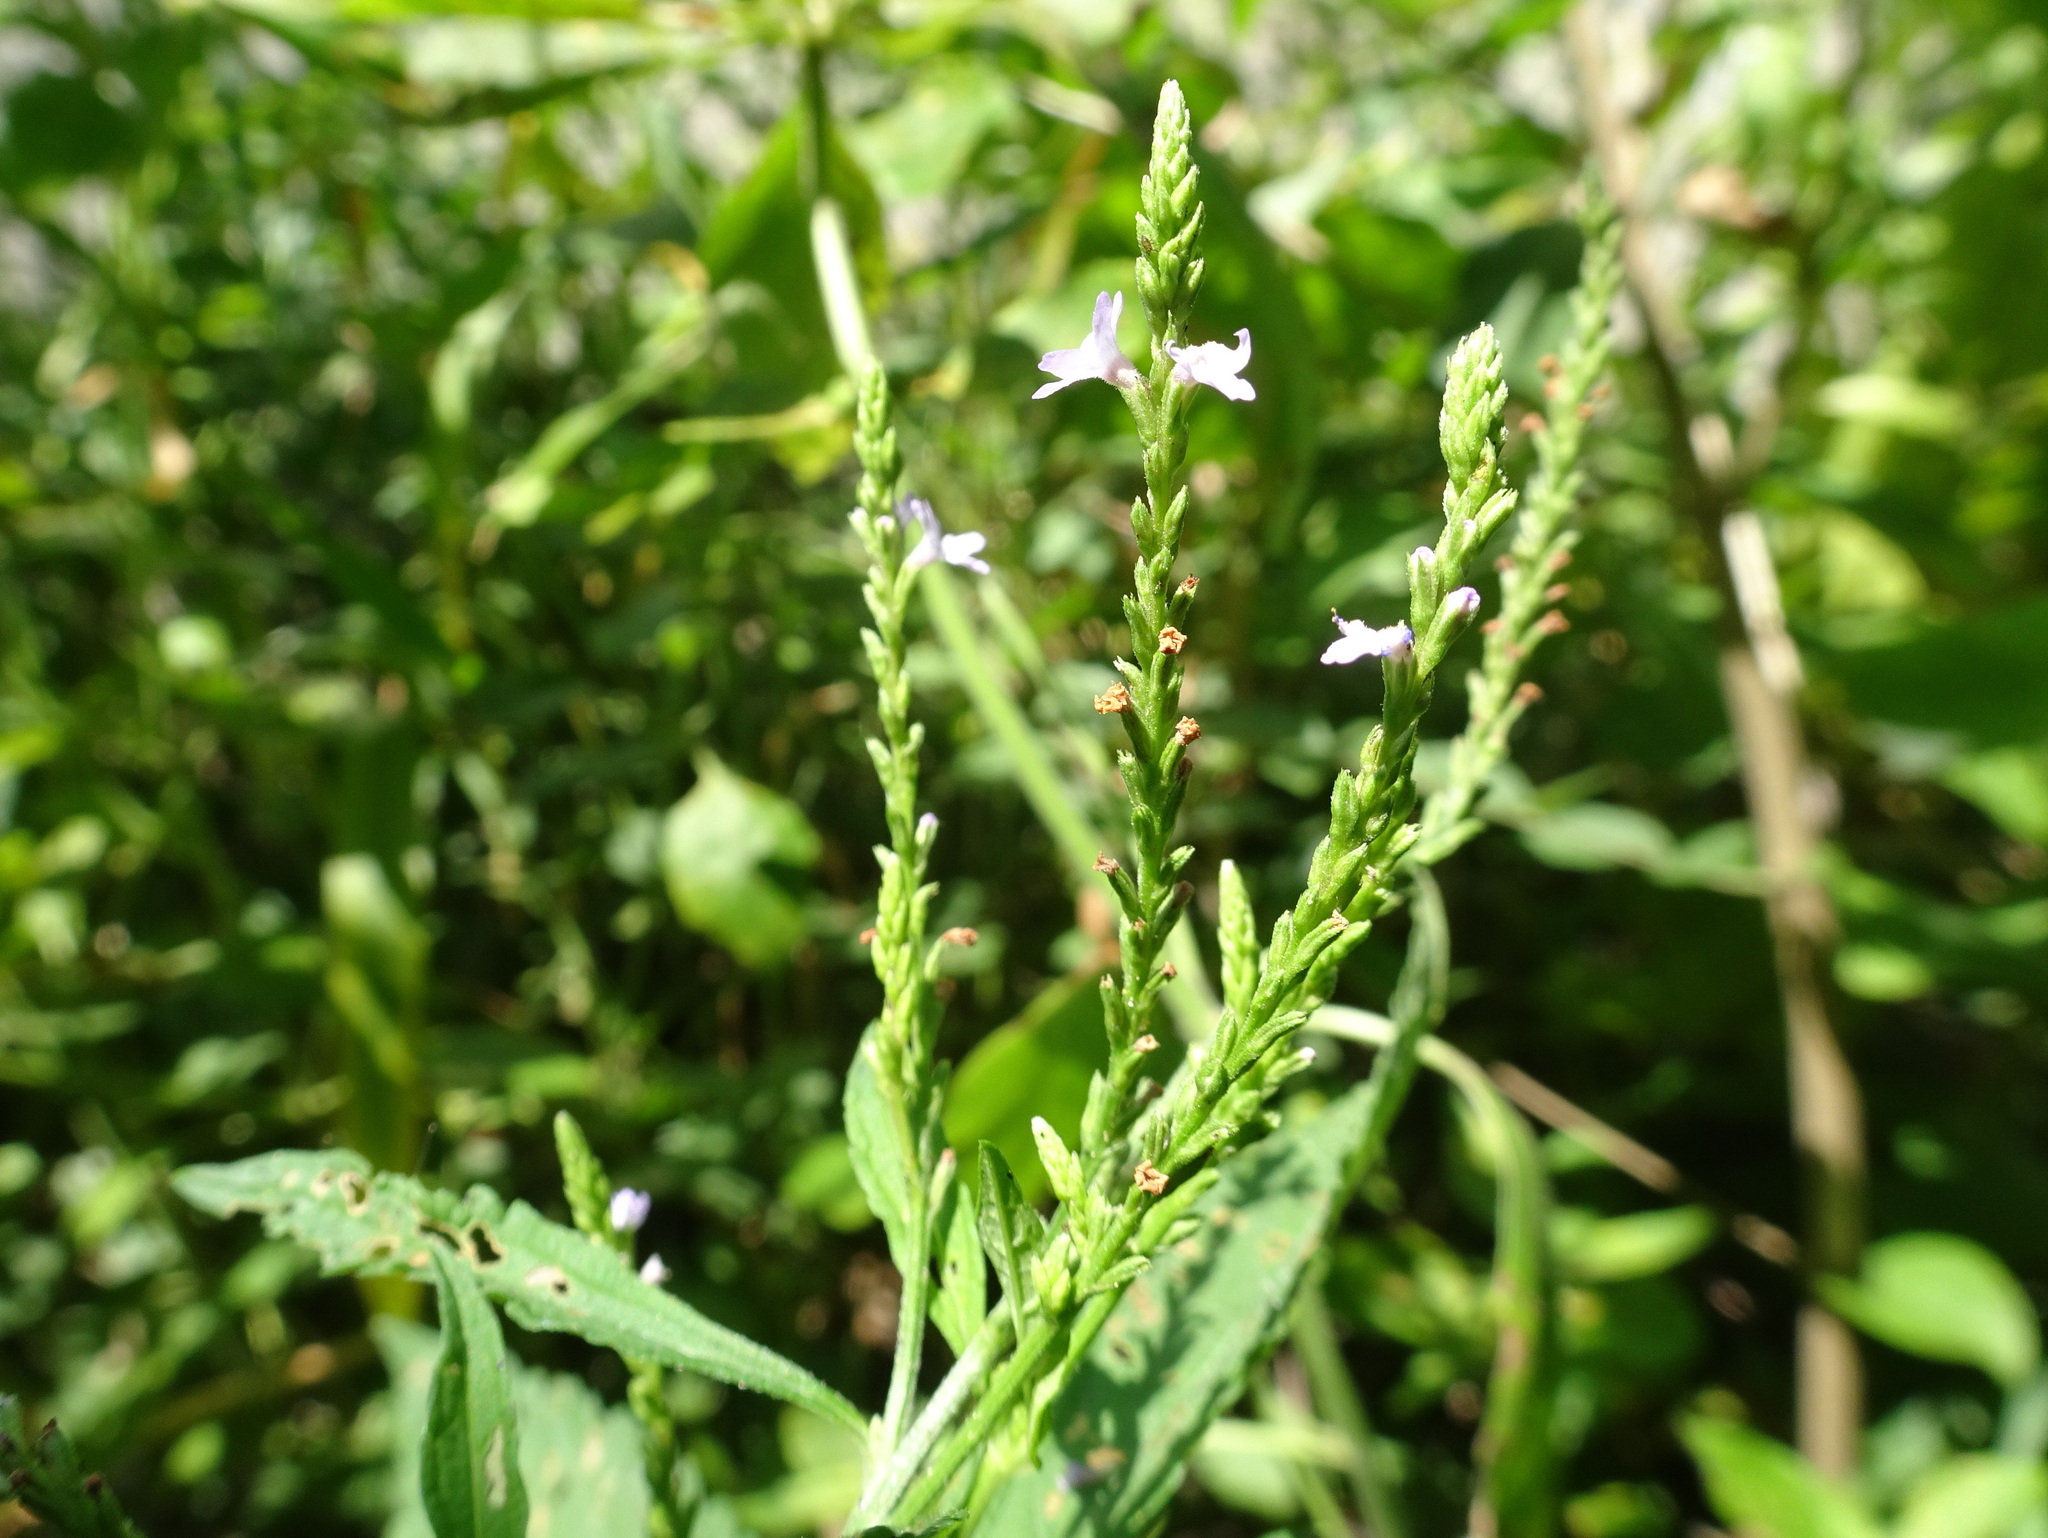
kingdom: Plantae
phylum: Tracheophyta
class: Magnoliopsida
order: Lamiales
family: Verbenaceae
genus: Verbena
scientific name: Verbena urticifolia
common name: Nettle-leaved vervain
